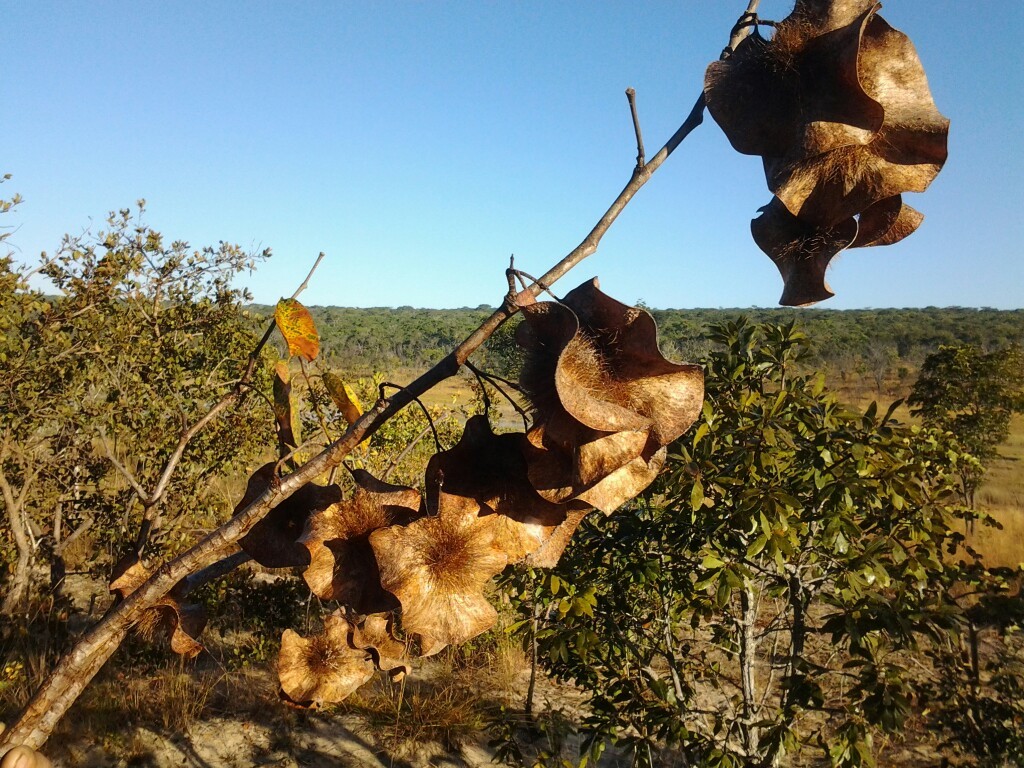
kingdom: Plantae
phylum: Tracheophyta
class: Magnoliopsida
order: Fabales
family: Fabaceae
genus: Pterocarpus
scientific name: Pterocarpus angolensis
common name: Bloodwood tree
